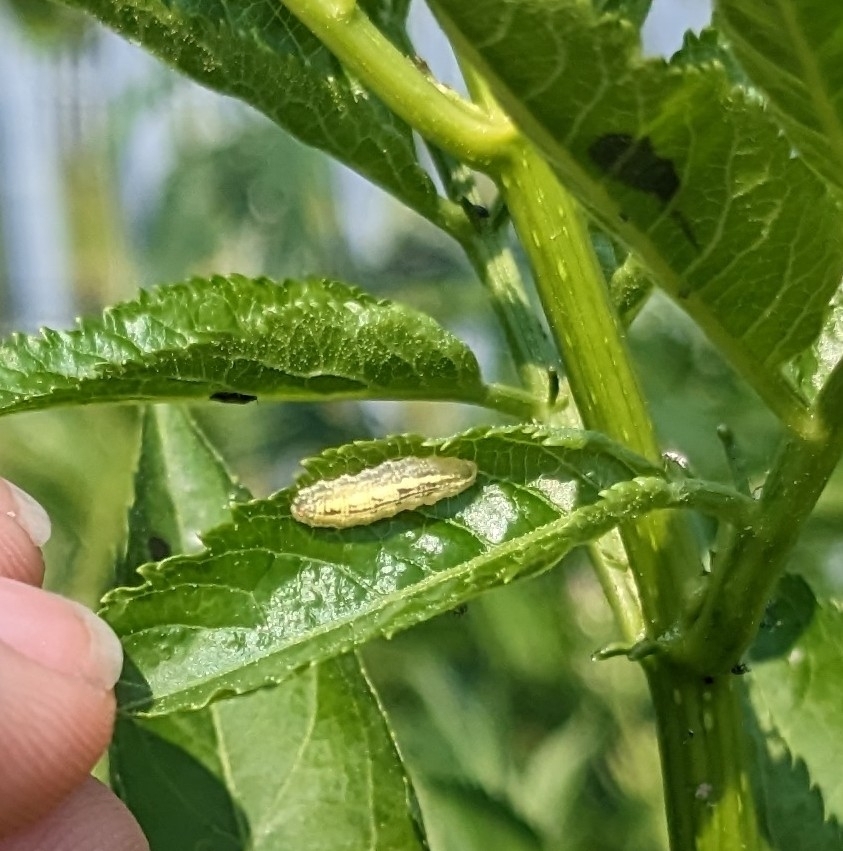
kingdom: Animalia
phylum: Arthropoda
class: Insecta
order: Diptera
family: Syrphidae
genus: Syrphus
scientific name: Syrphus
